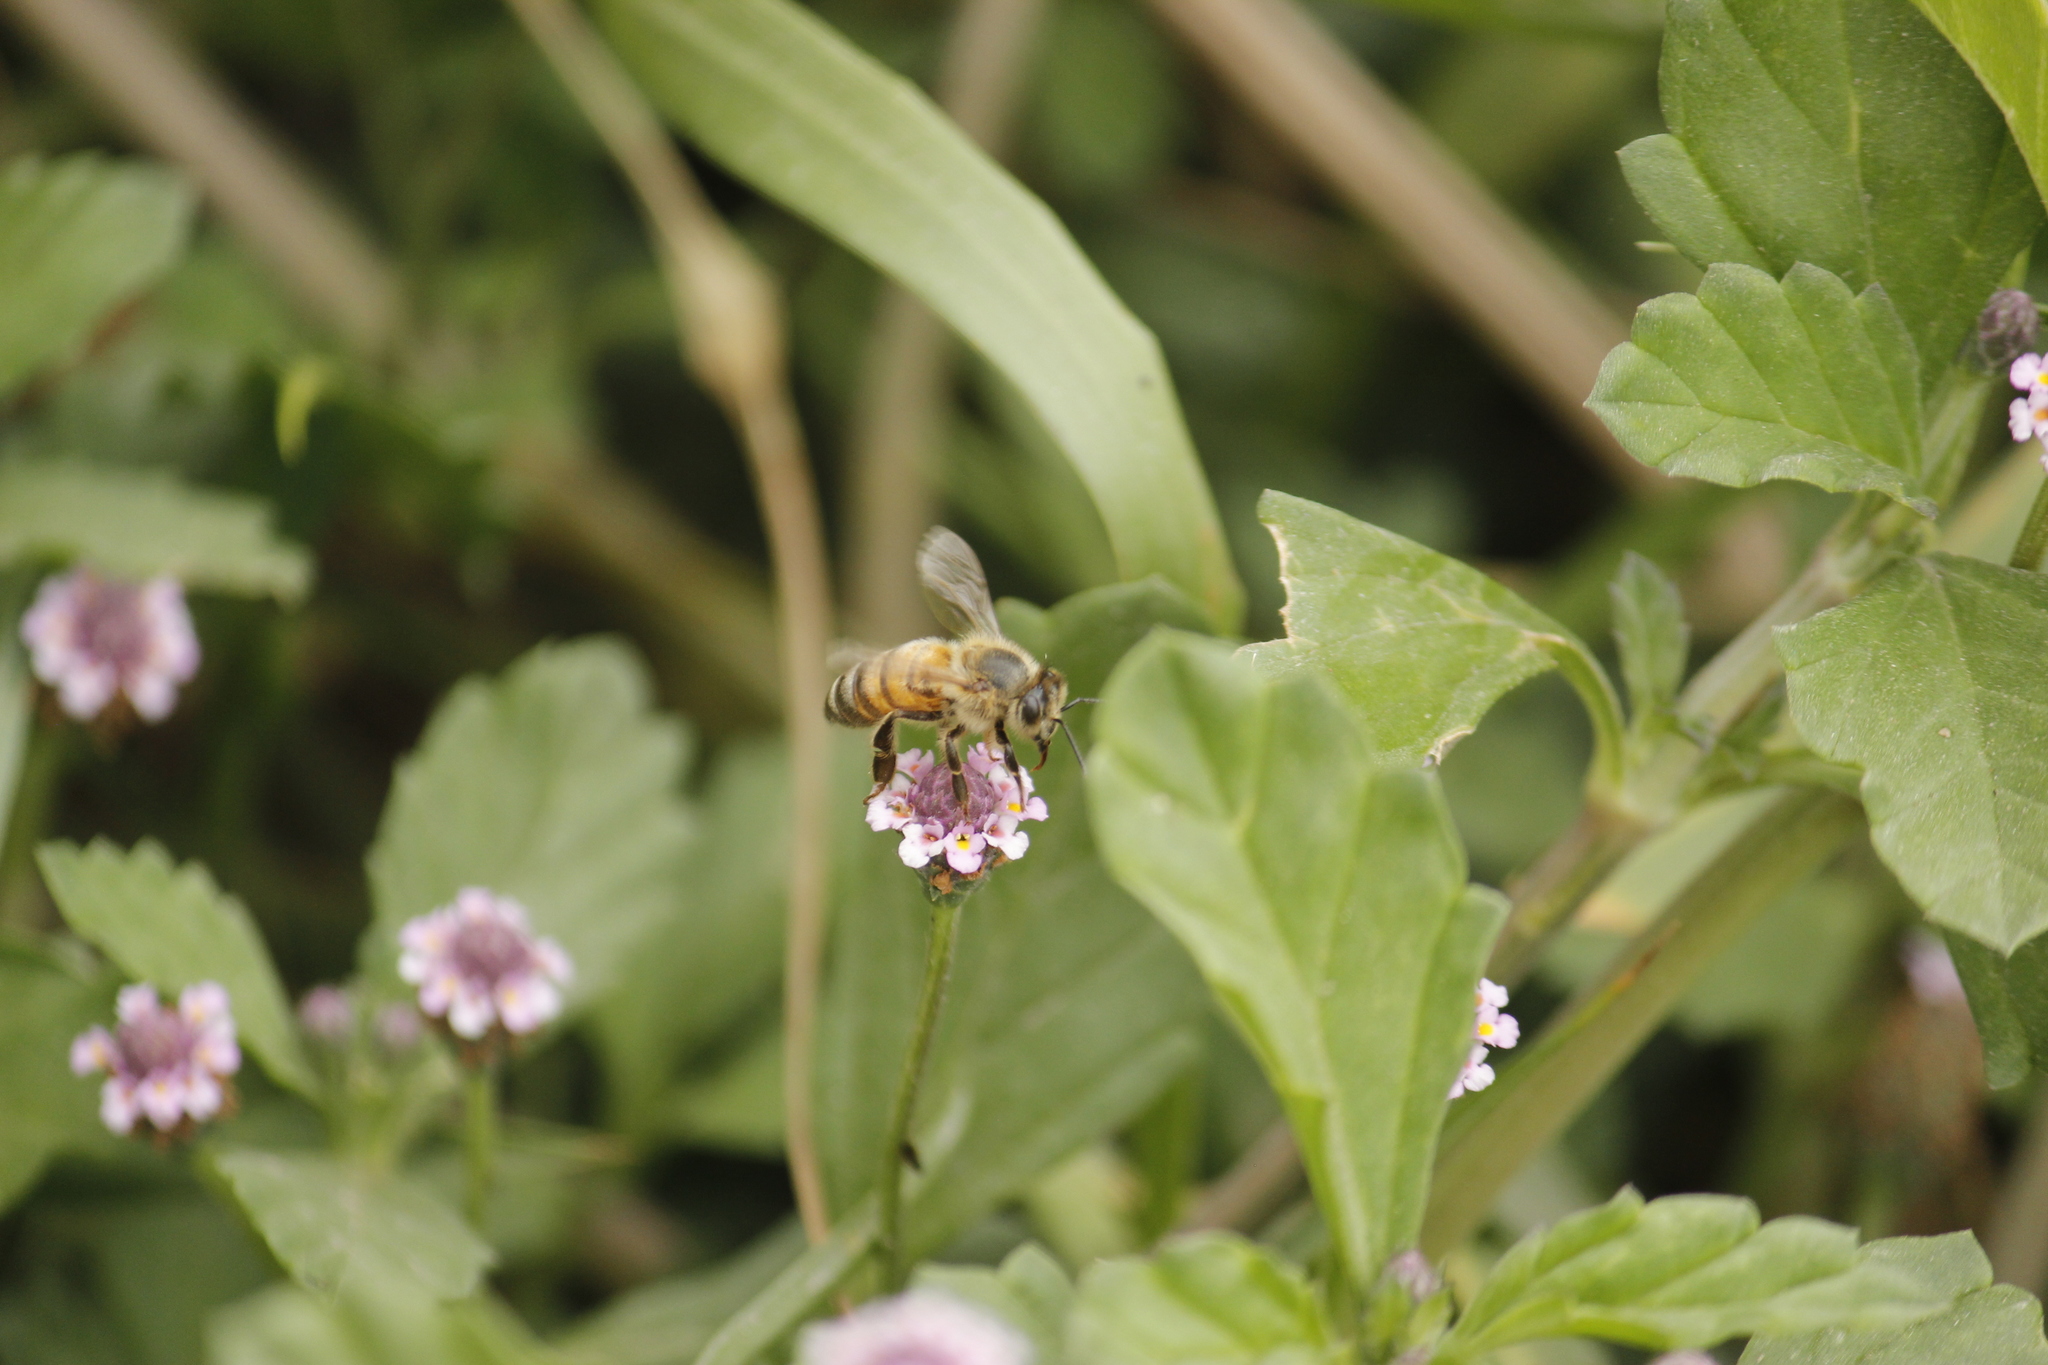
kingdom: Animalia
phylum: Arthropoda
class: Insecta
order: Hymenoptera
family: Apidae
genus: Apis
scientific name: Apis mellifera
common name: Honey bee
